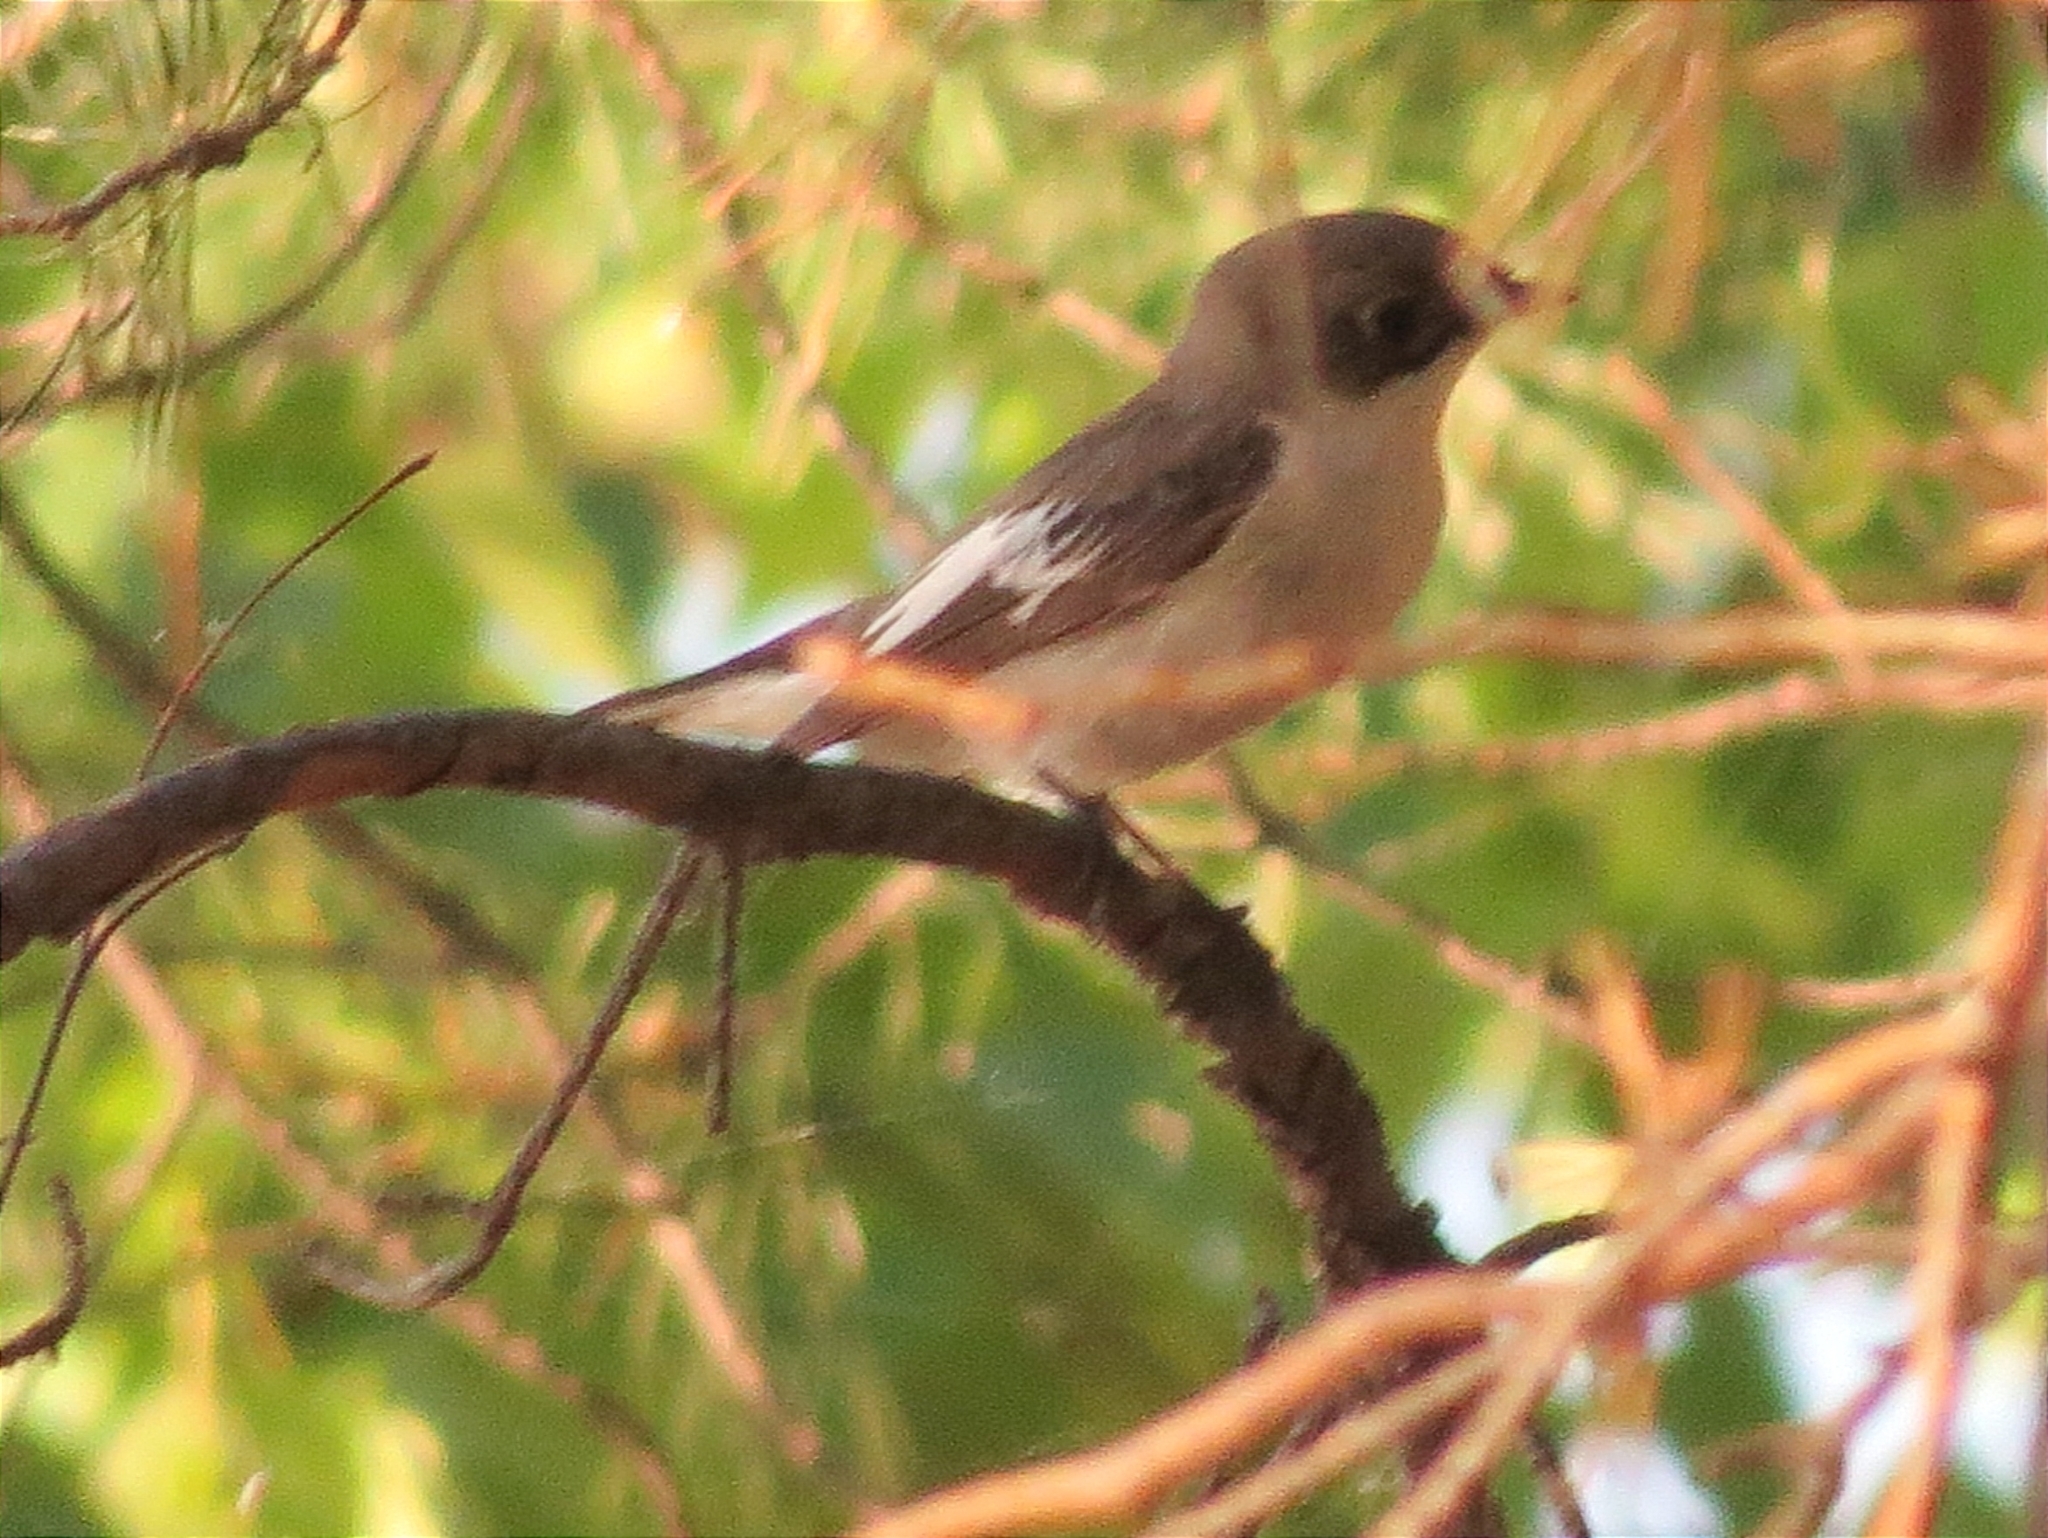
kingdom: Animalia
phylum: Chordata
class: Aves
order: Passeriformes
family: Muscicapidae
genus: Ficedula
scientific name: Ficedula hypoleuca
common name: European pied flycatcher
